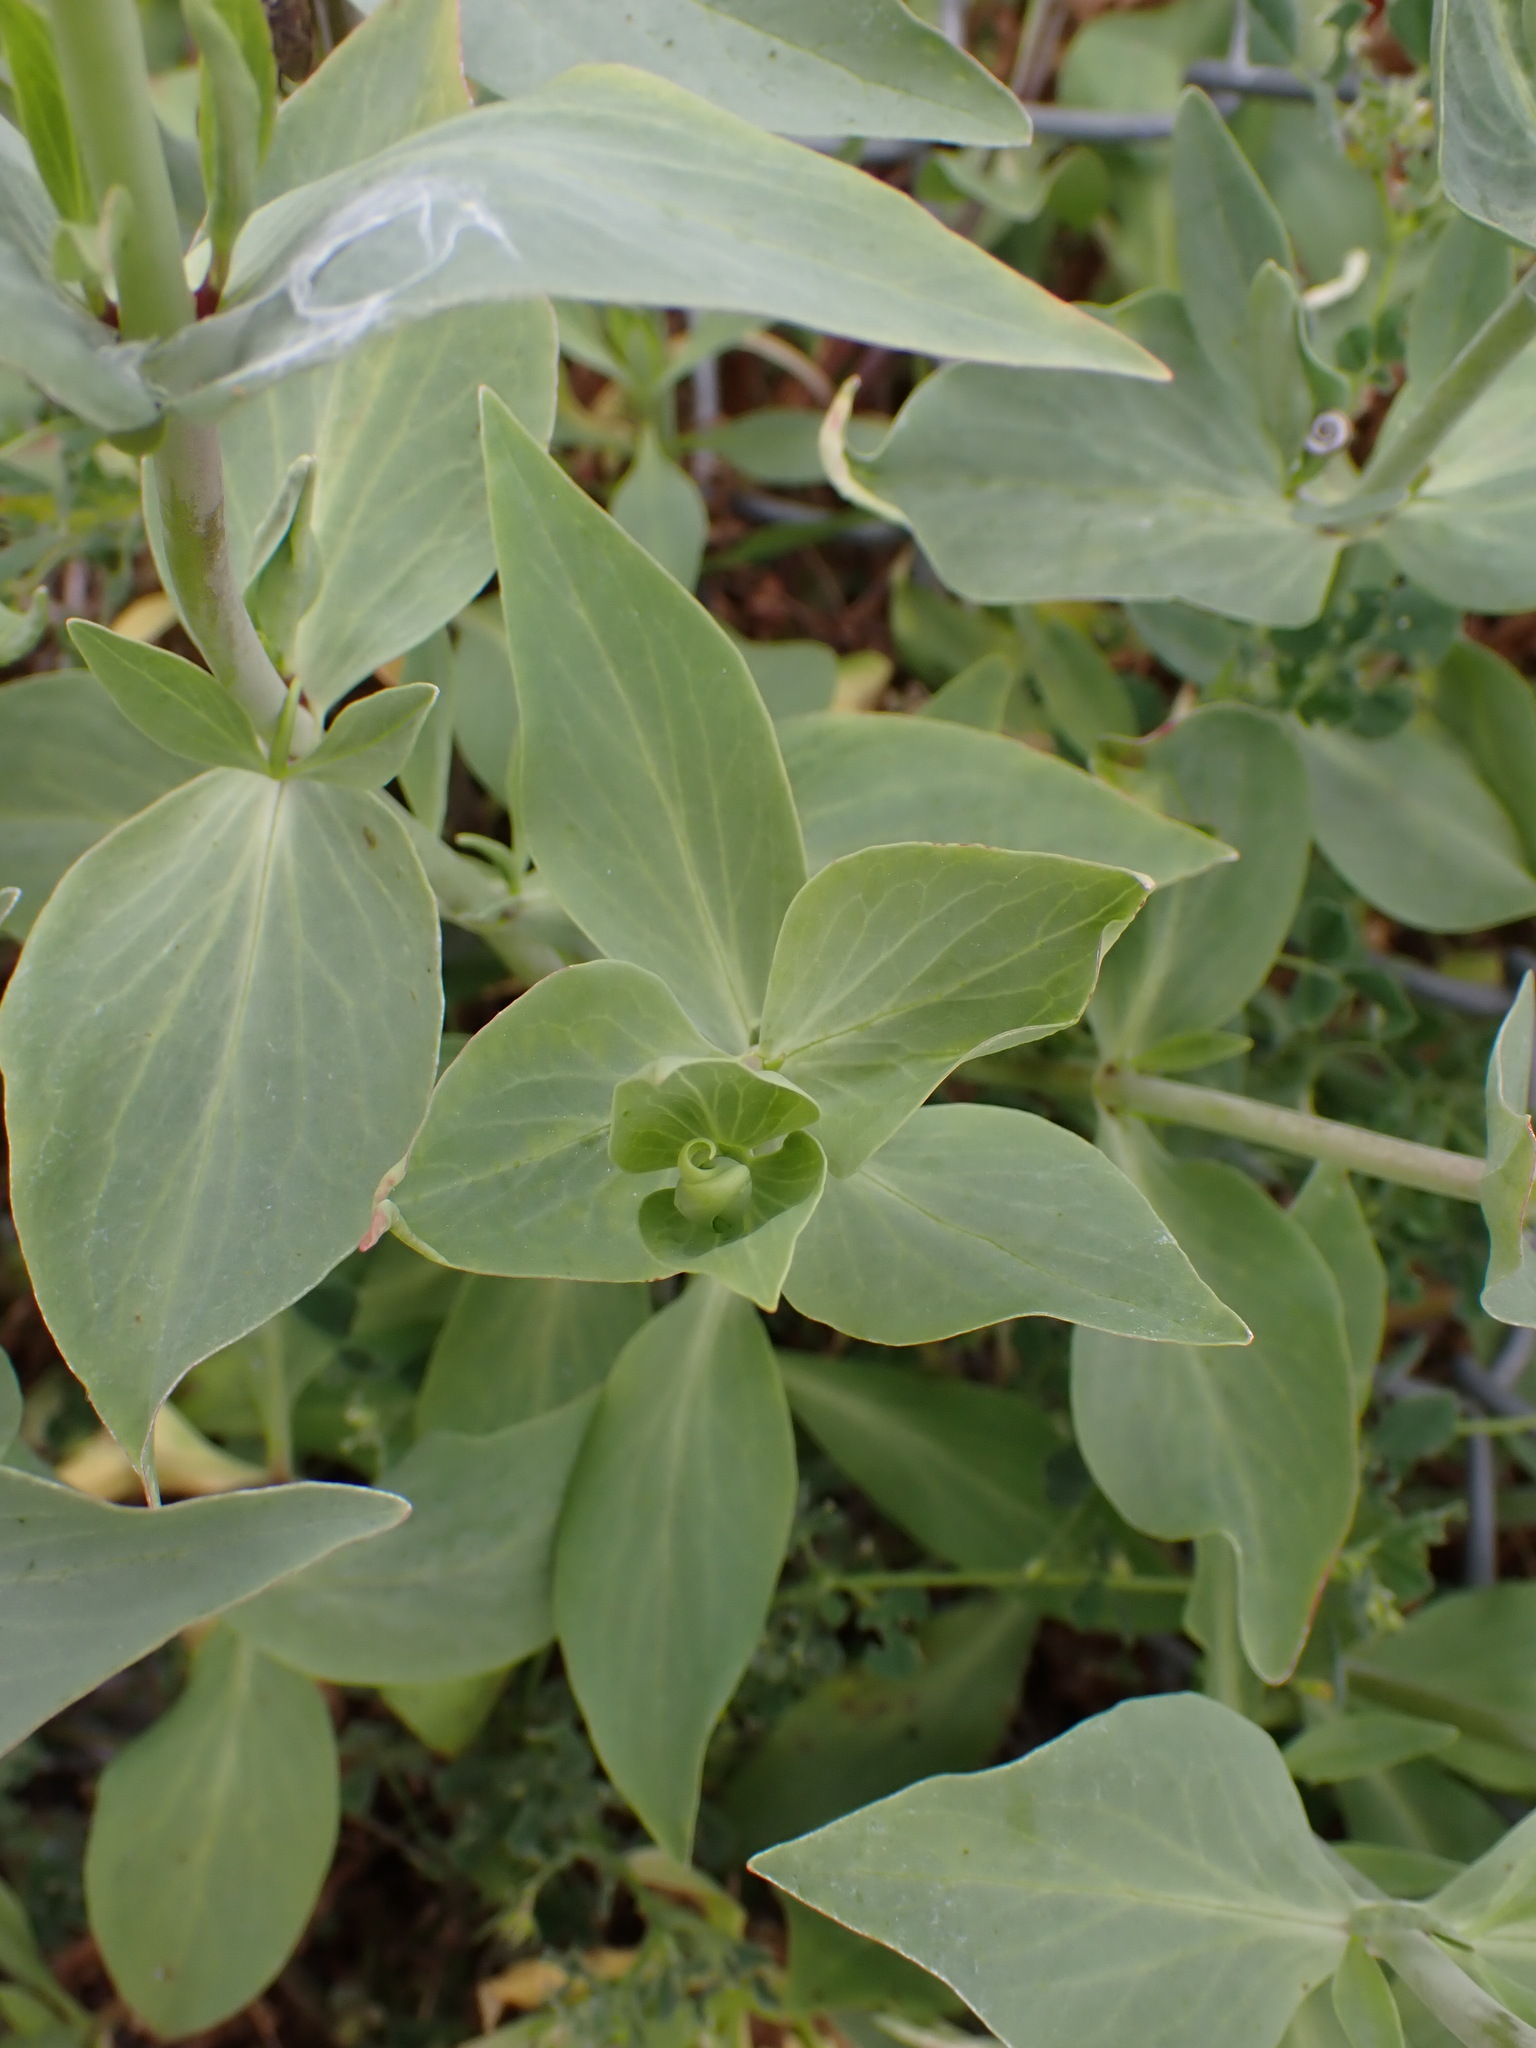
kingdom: Plantae
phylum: Tracheophyta
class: Magnoliopsida
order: Dipsacales
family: Caprifoliaceae
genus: Centranthus
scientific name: Centranthus ruber
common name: Red valerian
